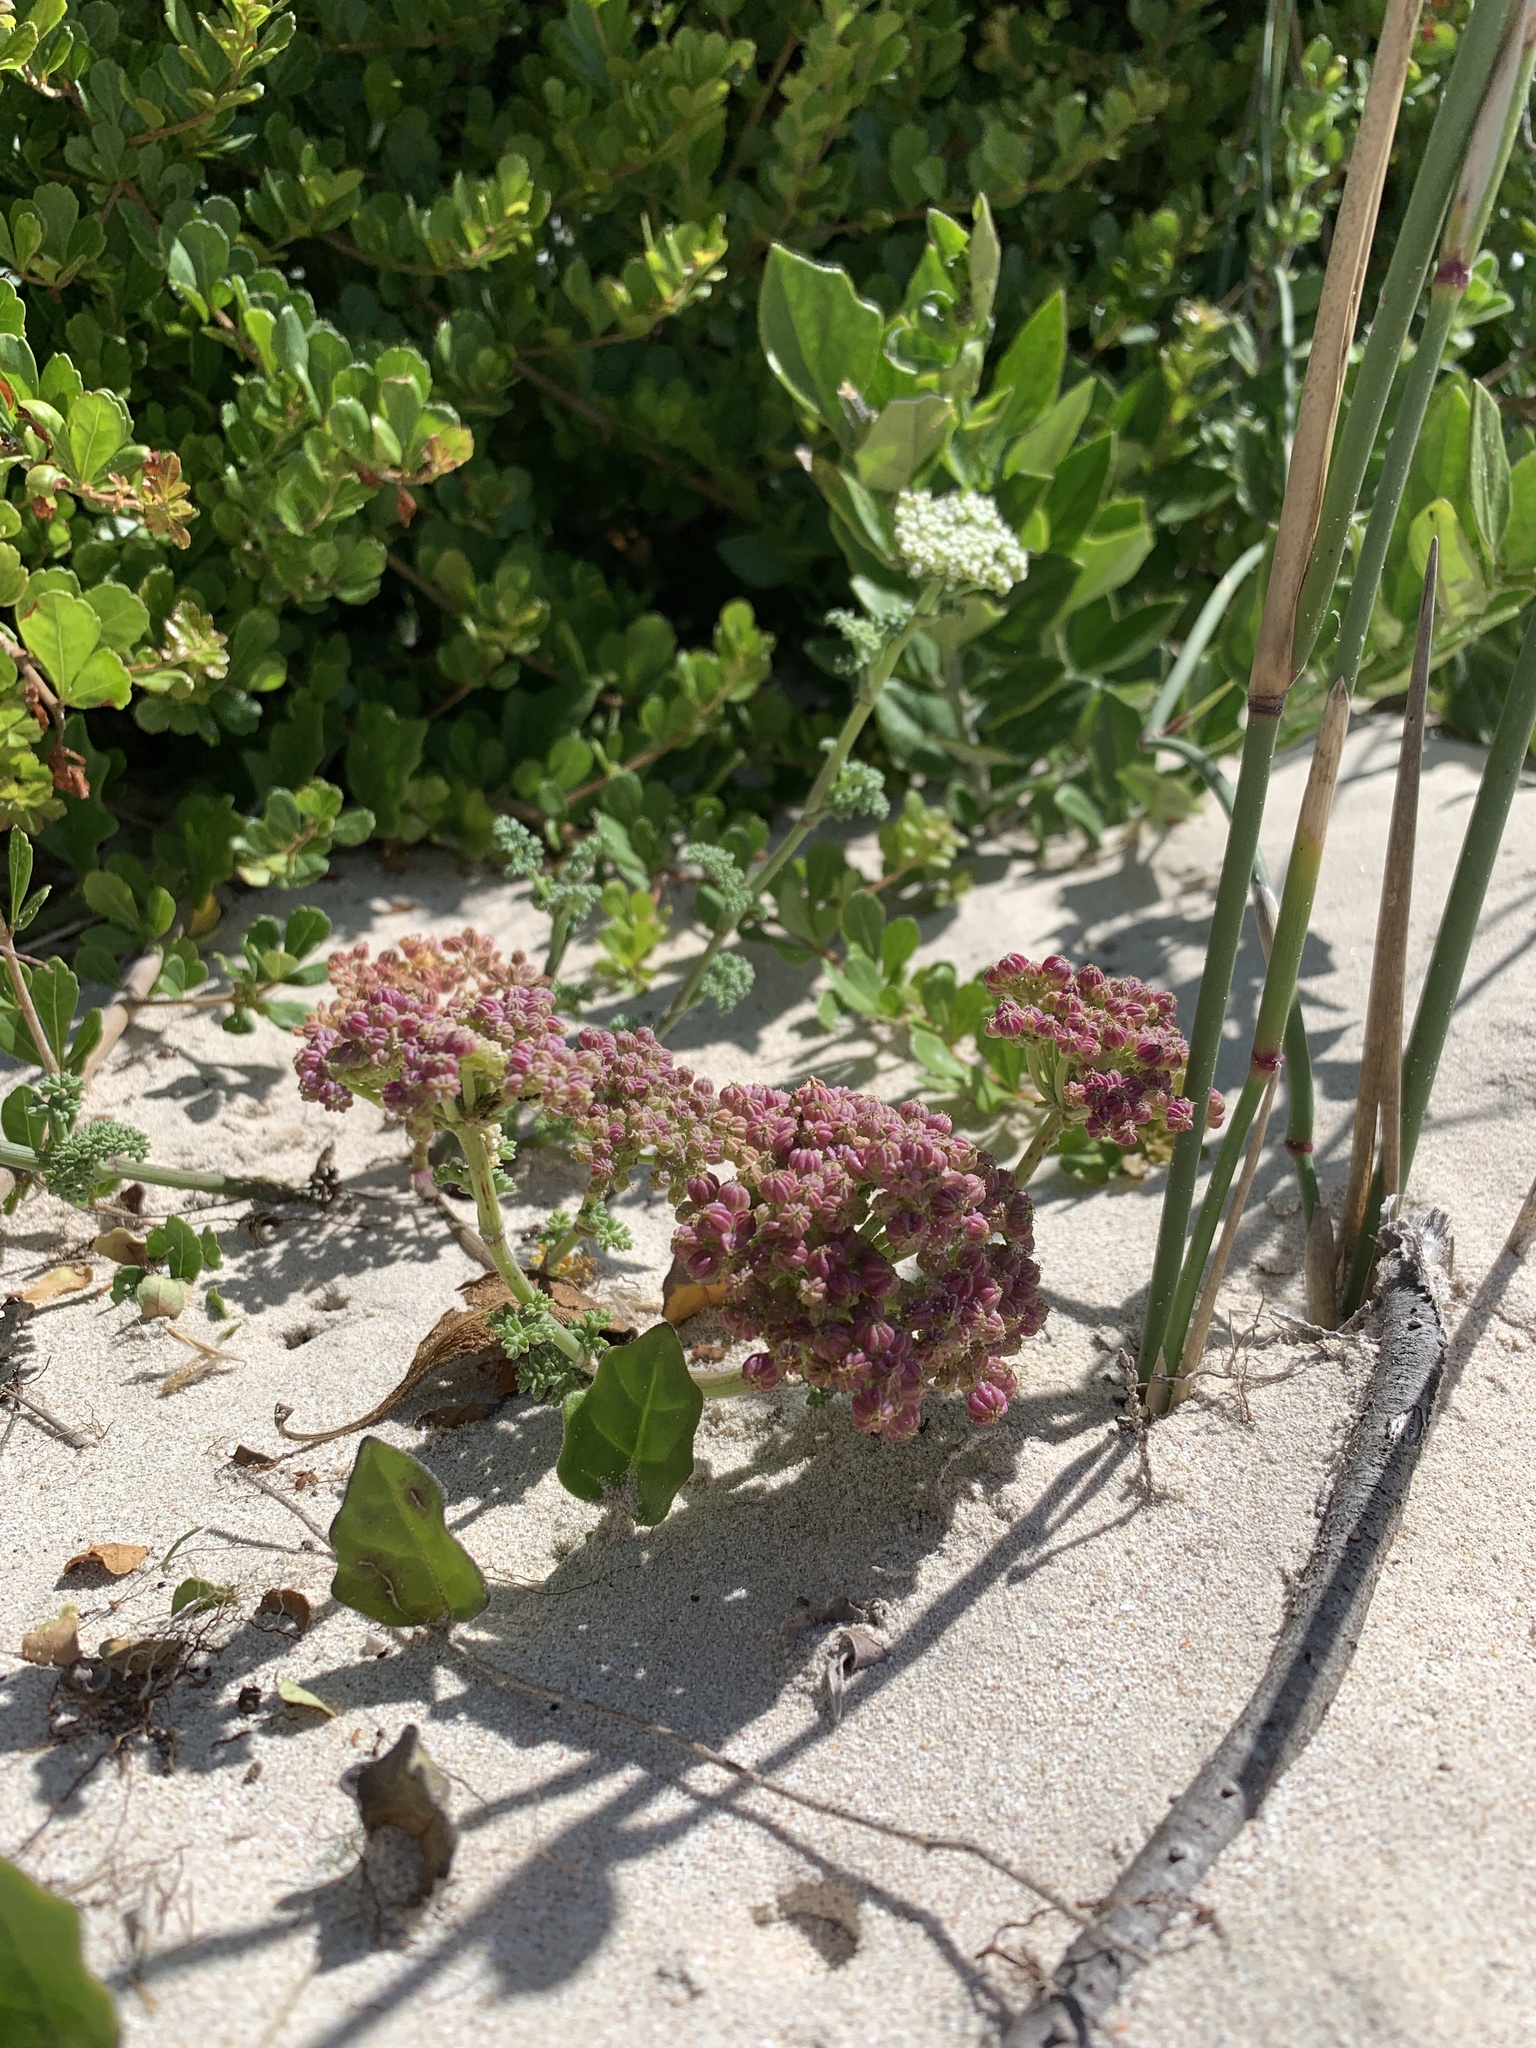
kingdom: Plantae
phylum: Tracheophyta
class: Magnoliopsida
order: Apiales
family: Apiaceae
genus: Dasispermum
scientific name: Dasispermum suffruticosum
